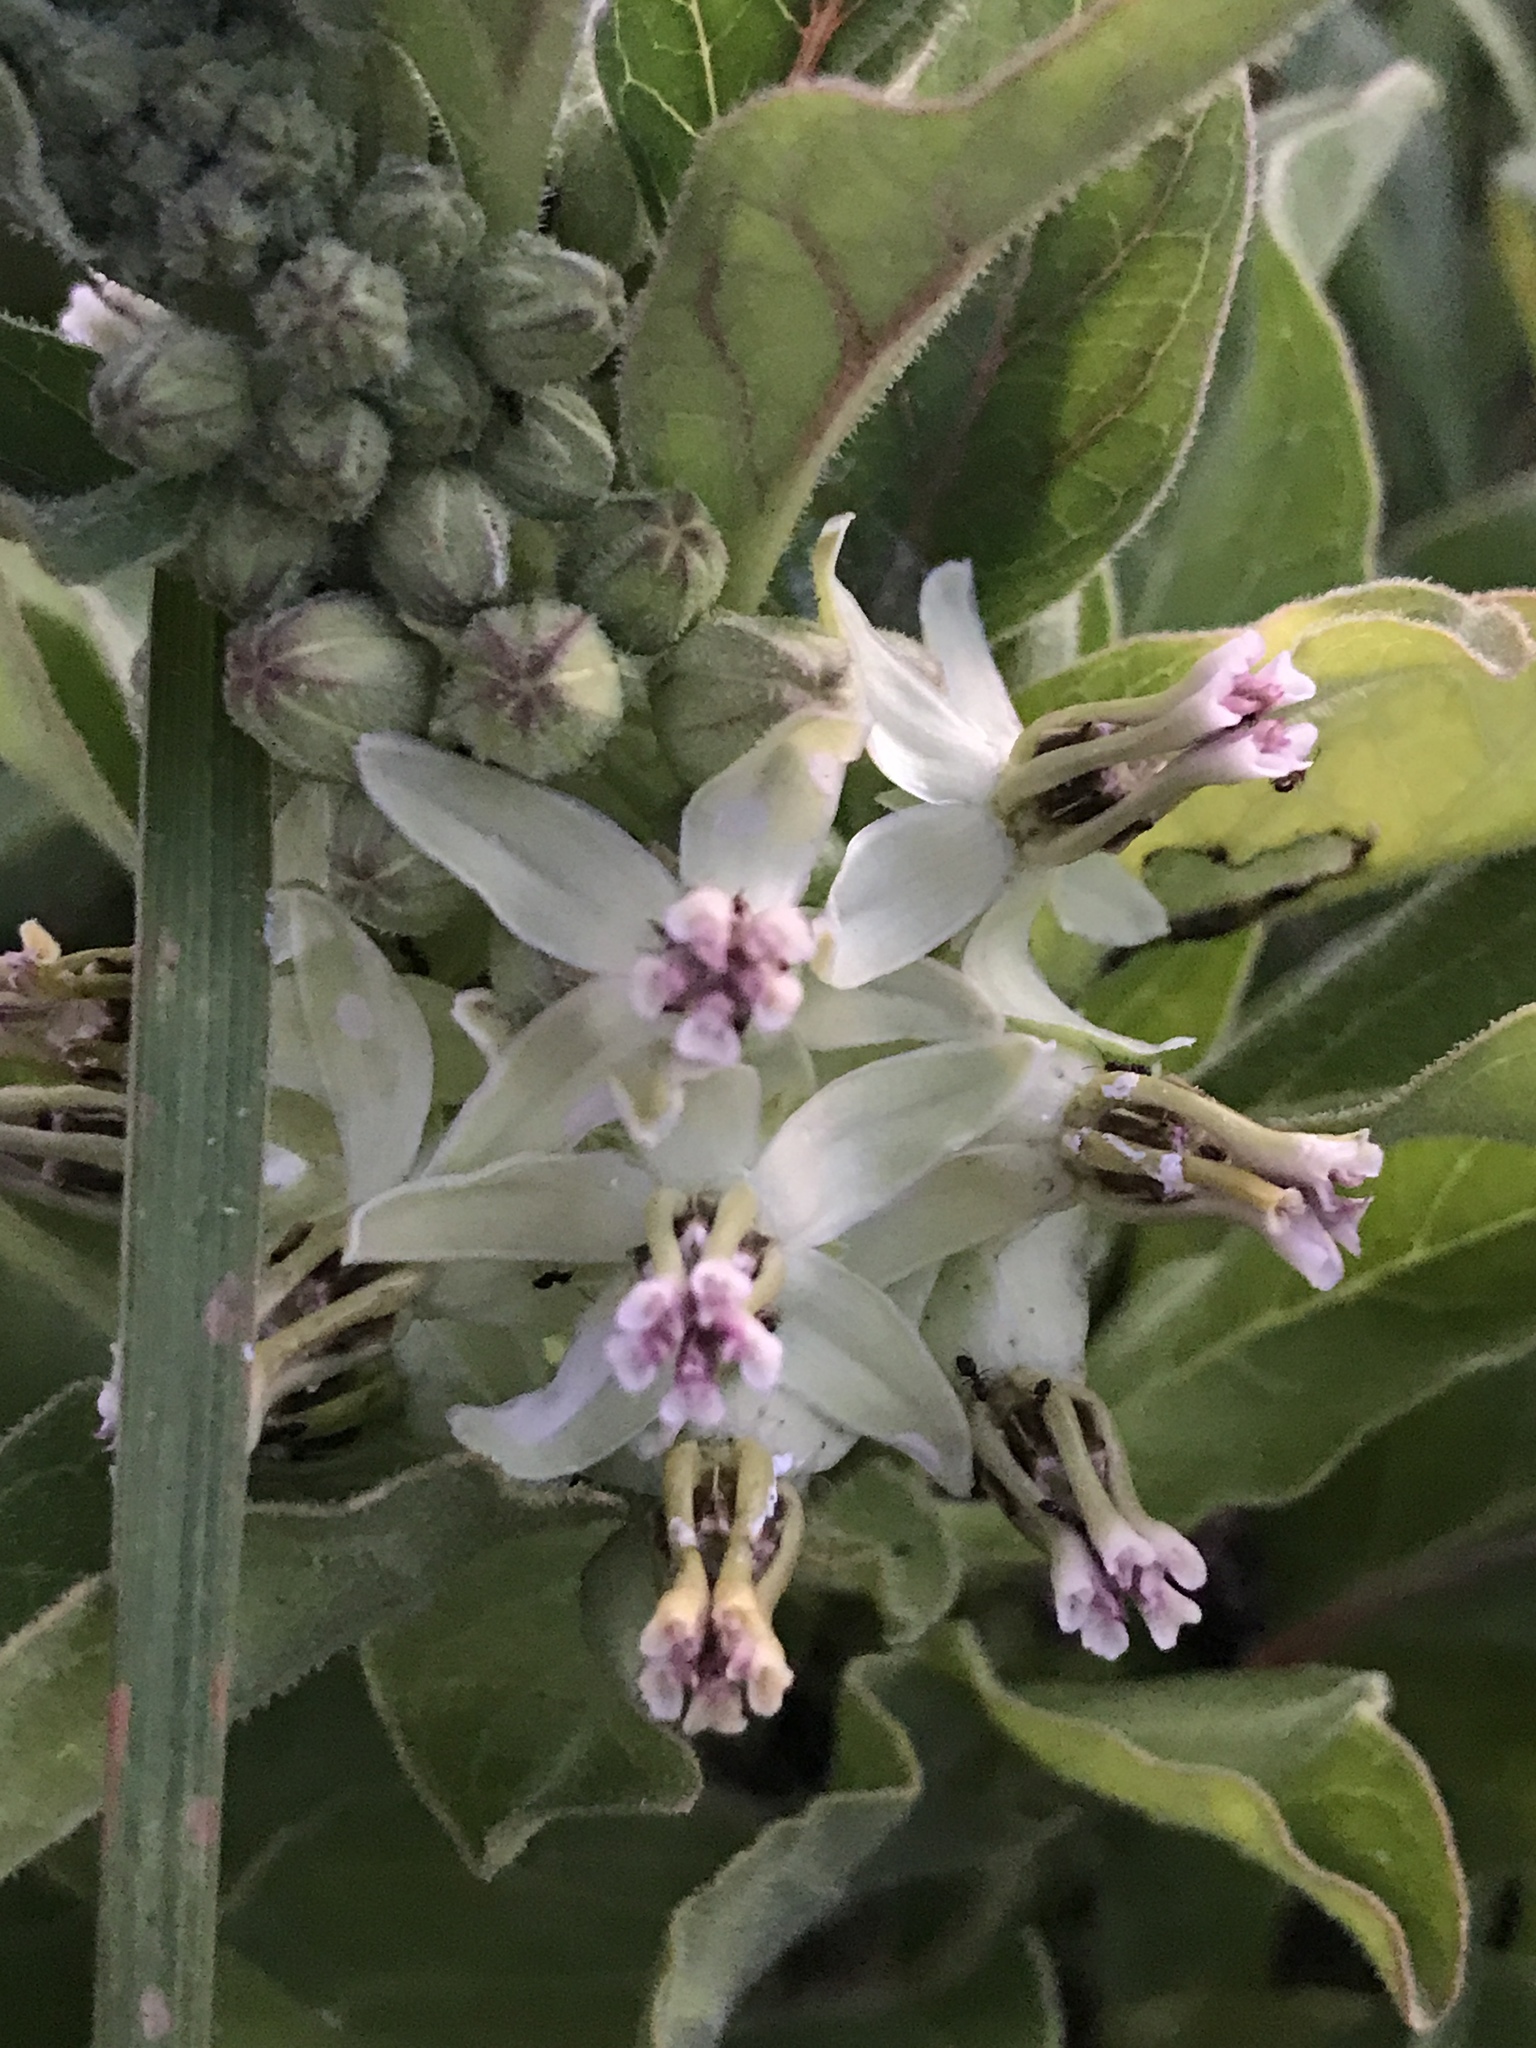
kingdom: Plantae
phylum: Tracheophyta
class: Magnoliopsida
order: Gentianales
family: Apocynaceae
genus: Asclepias
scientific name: Asclepias oenotheroides
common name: Zizotes milkweed
